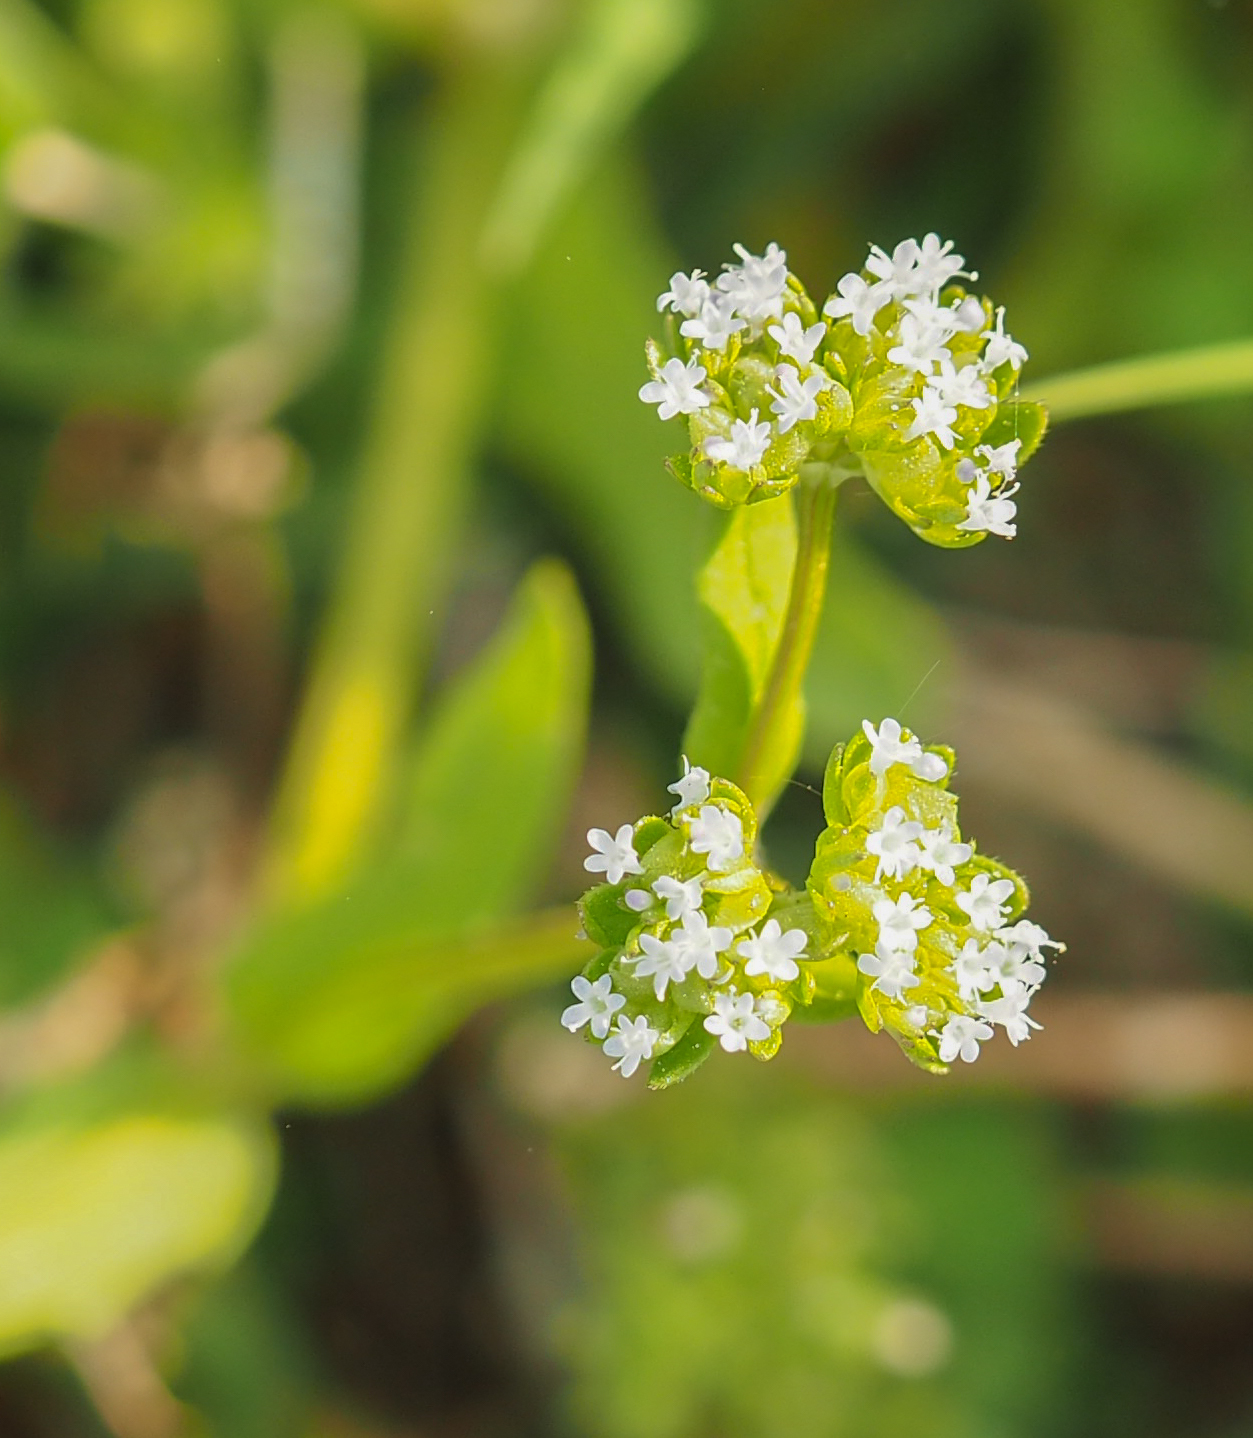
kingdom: Plantae
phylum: Tracheophyta
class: Magnoliopsida
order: Dipsacales
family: Caprifoliaceae
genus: Valerianella
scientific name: Valerianella locusta
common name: Common cornsalad
